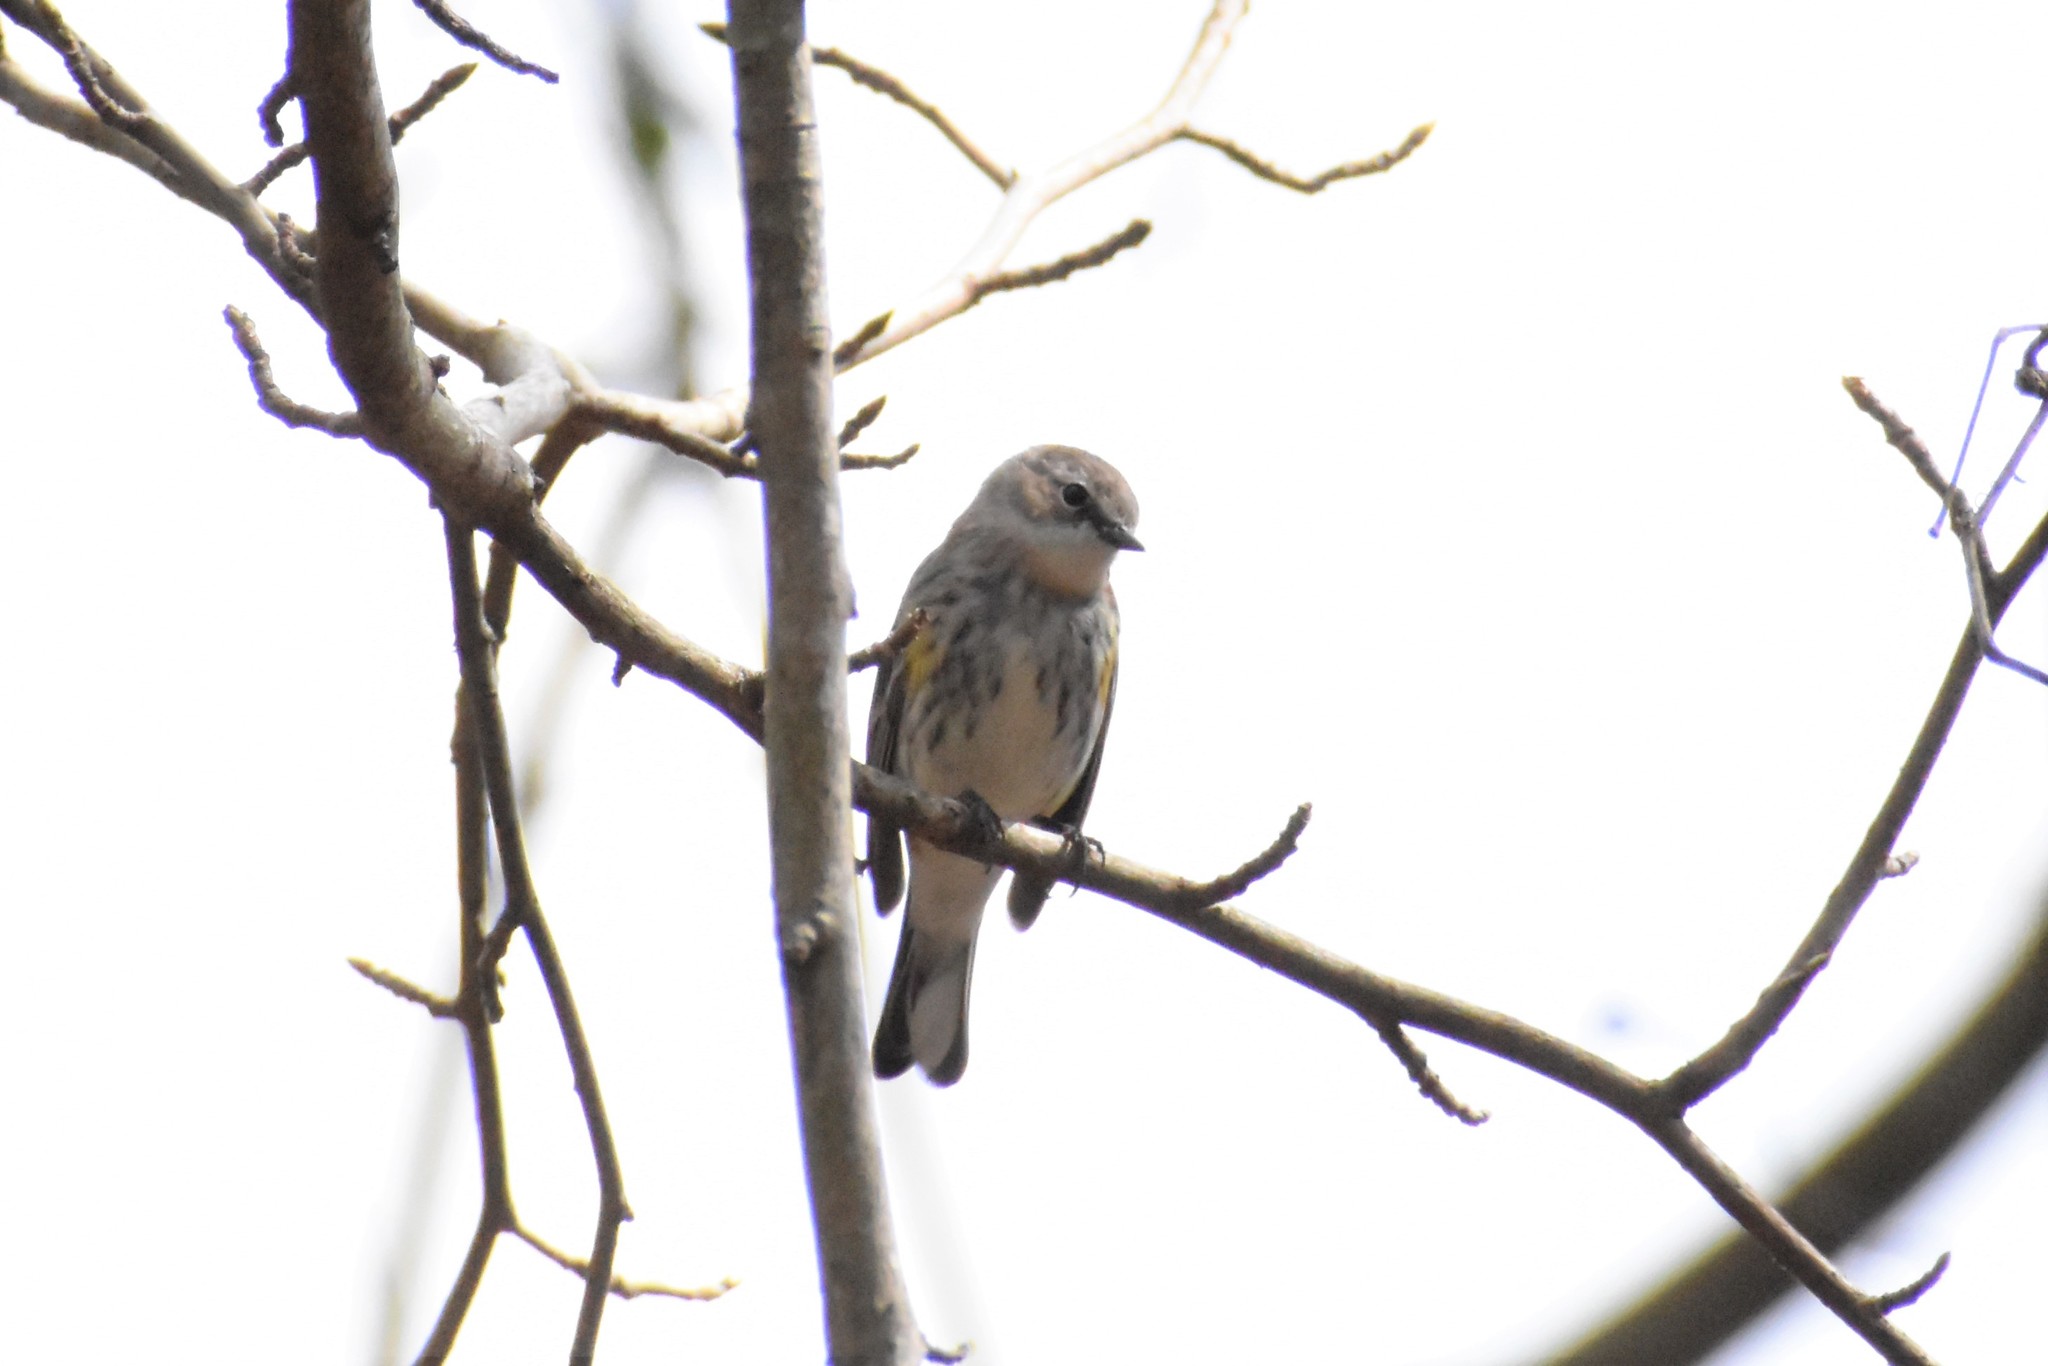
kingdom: Animalia
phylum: Chordata
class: Aves
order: Passeriformes
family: Parulidae
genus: Setophaga
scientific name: Setophaga coronata
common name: Myrtle warbler
